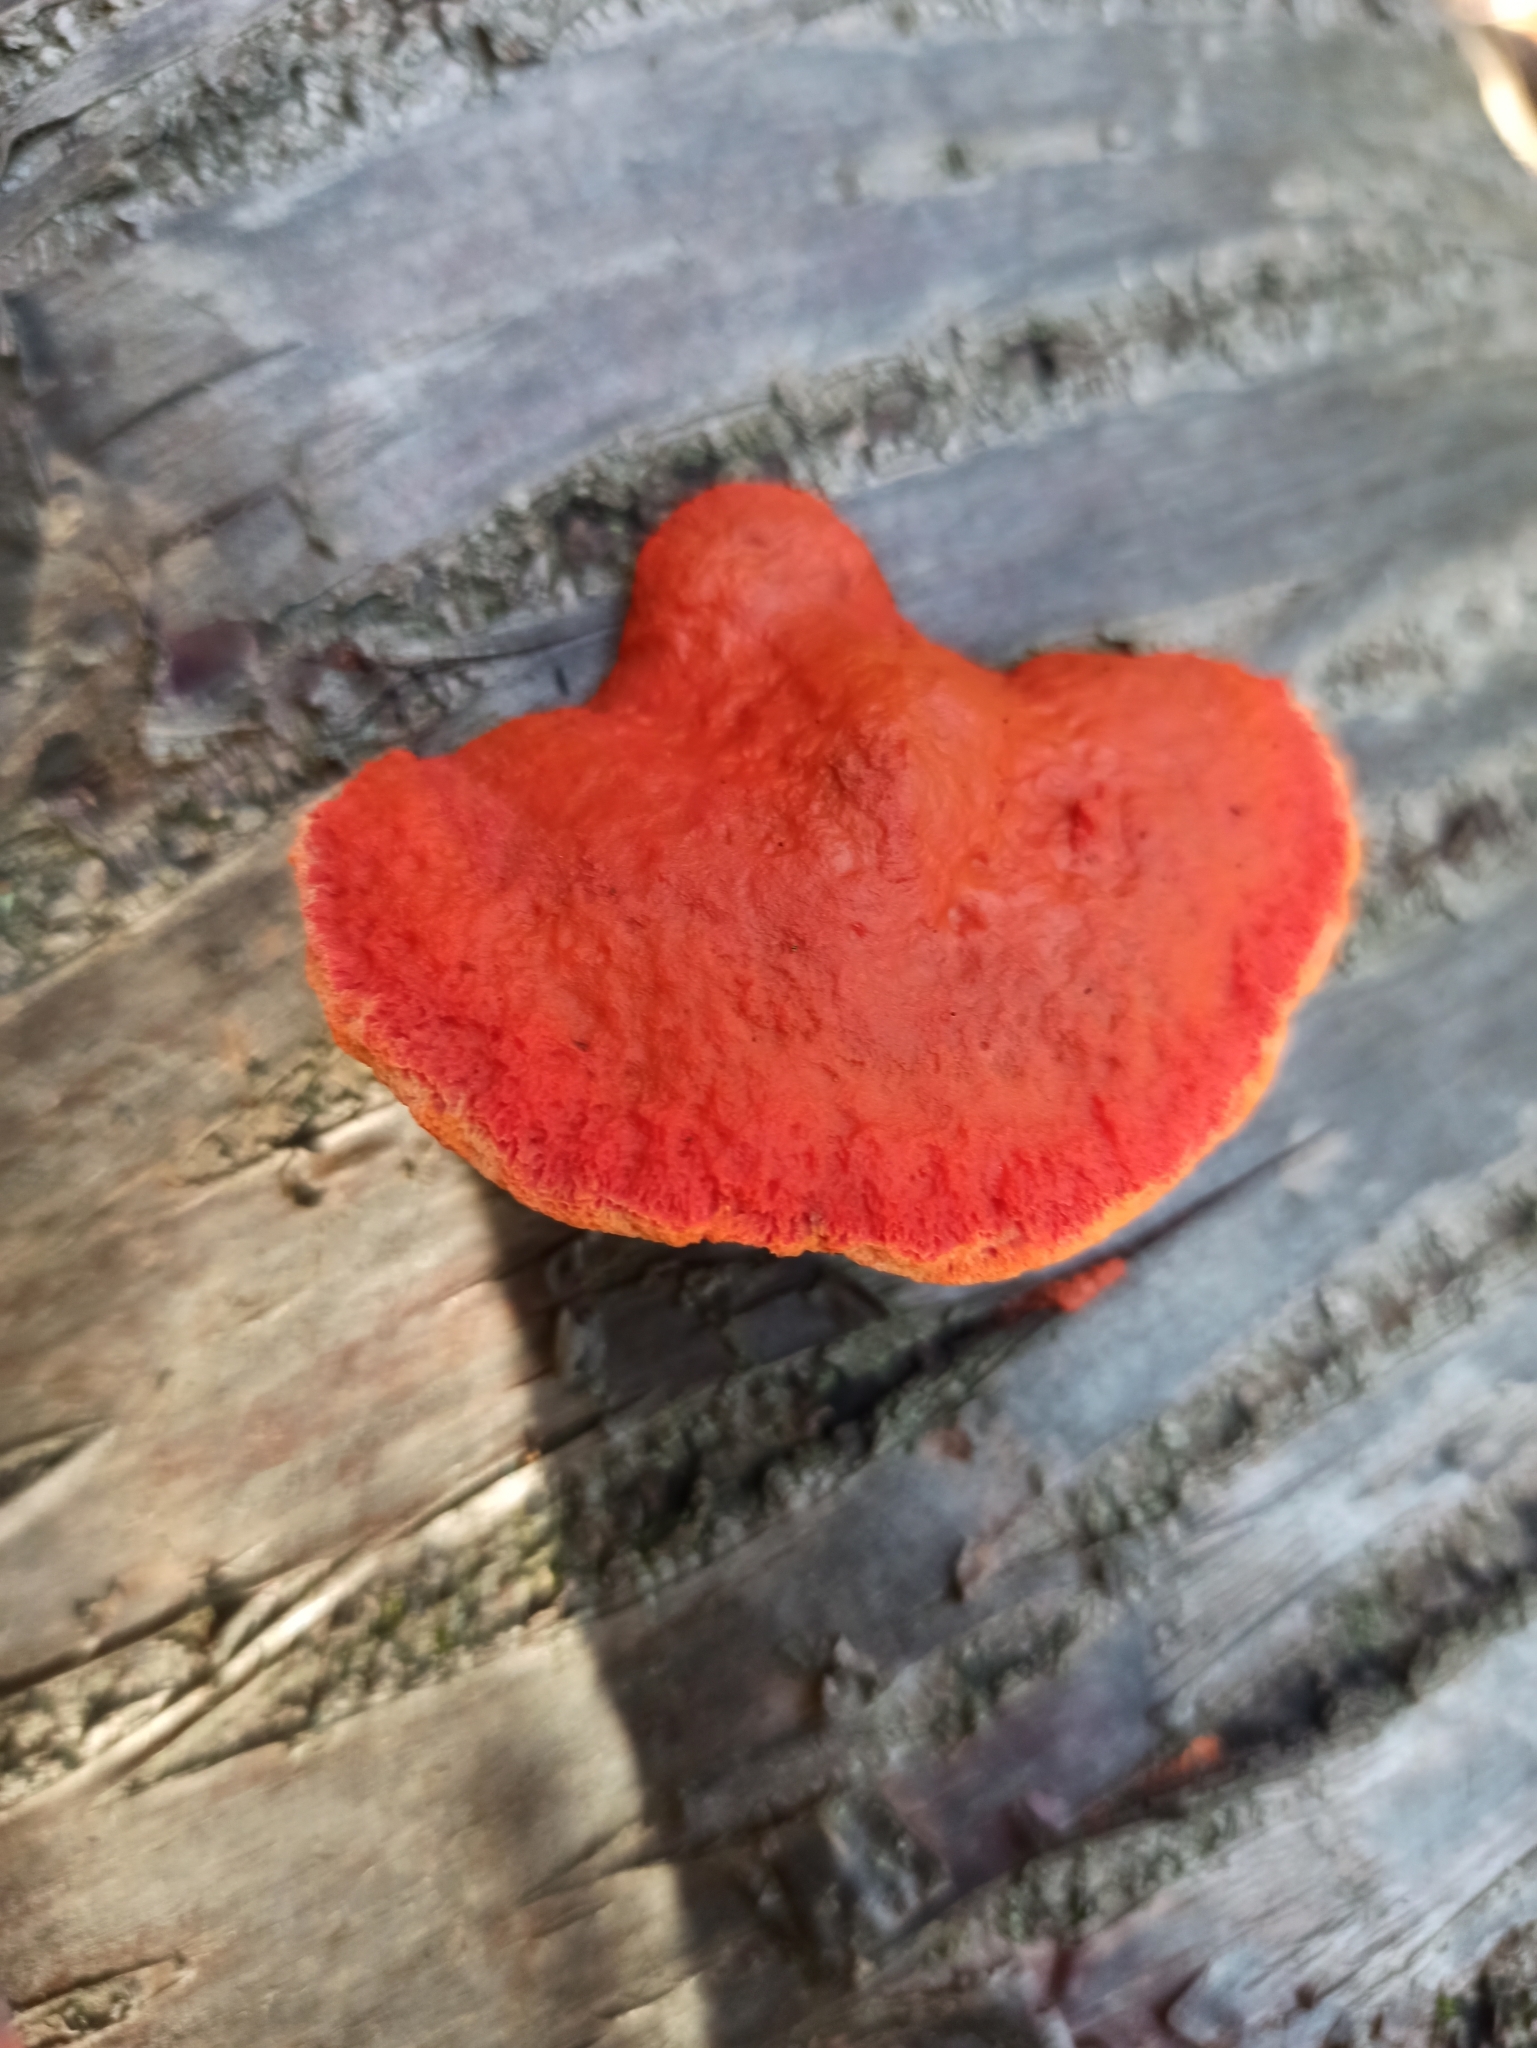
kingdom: Fungi
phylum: Basidiomycota
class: Agaricomycetes
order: Polyporales
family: Polyporaceae
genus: Trametes
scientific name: Trametes cinnabarina
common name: Northern cinnabar polypore
